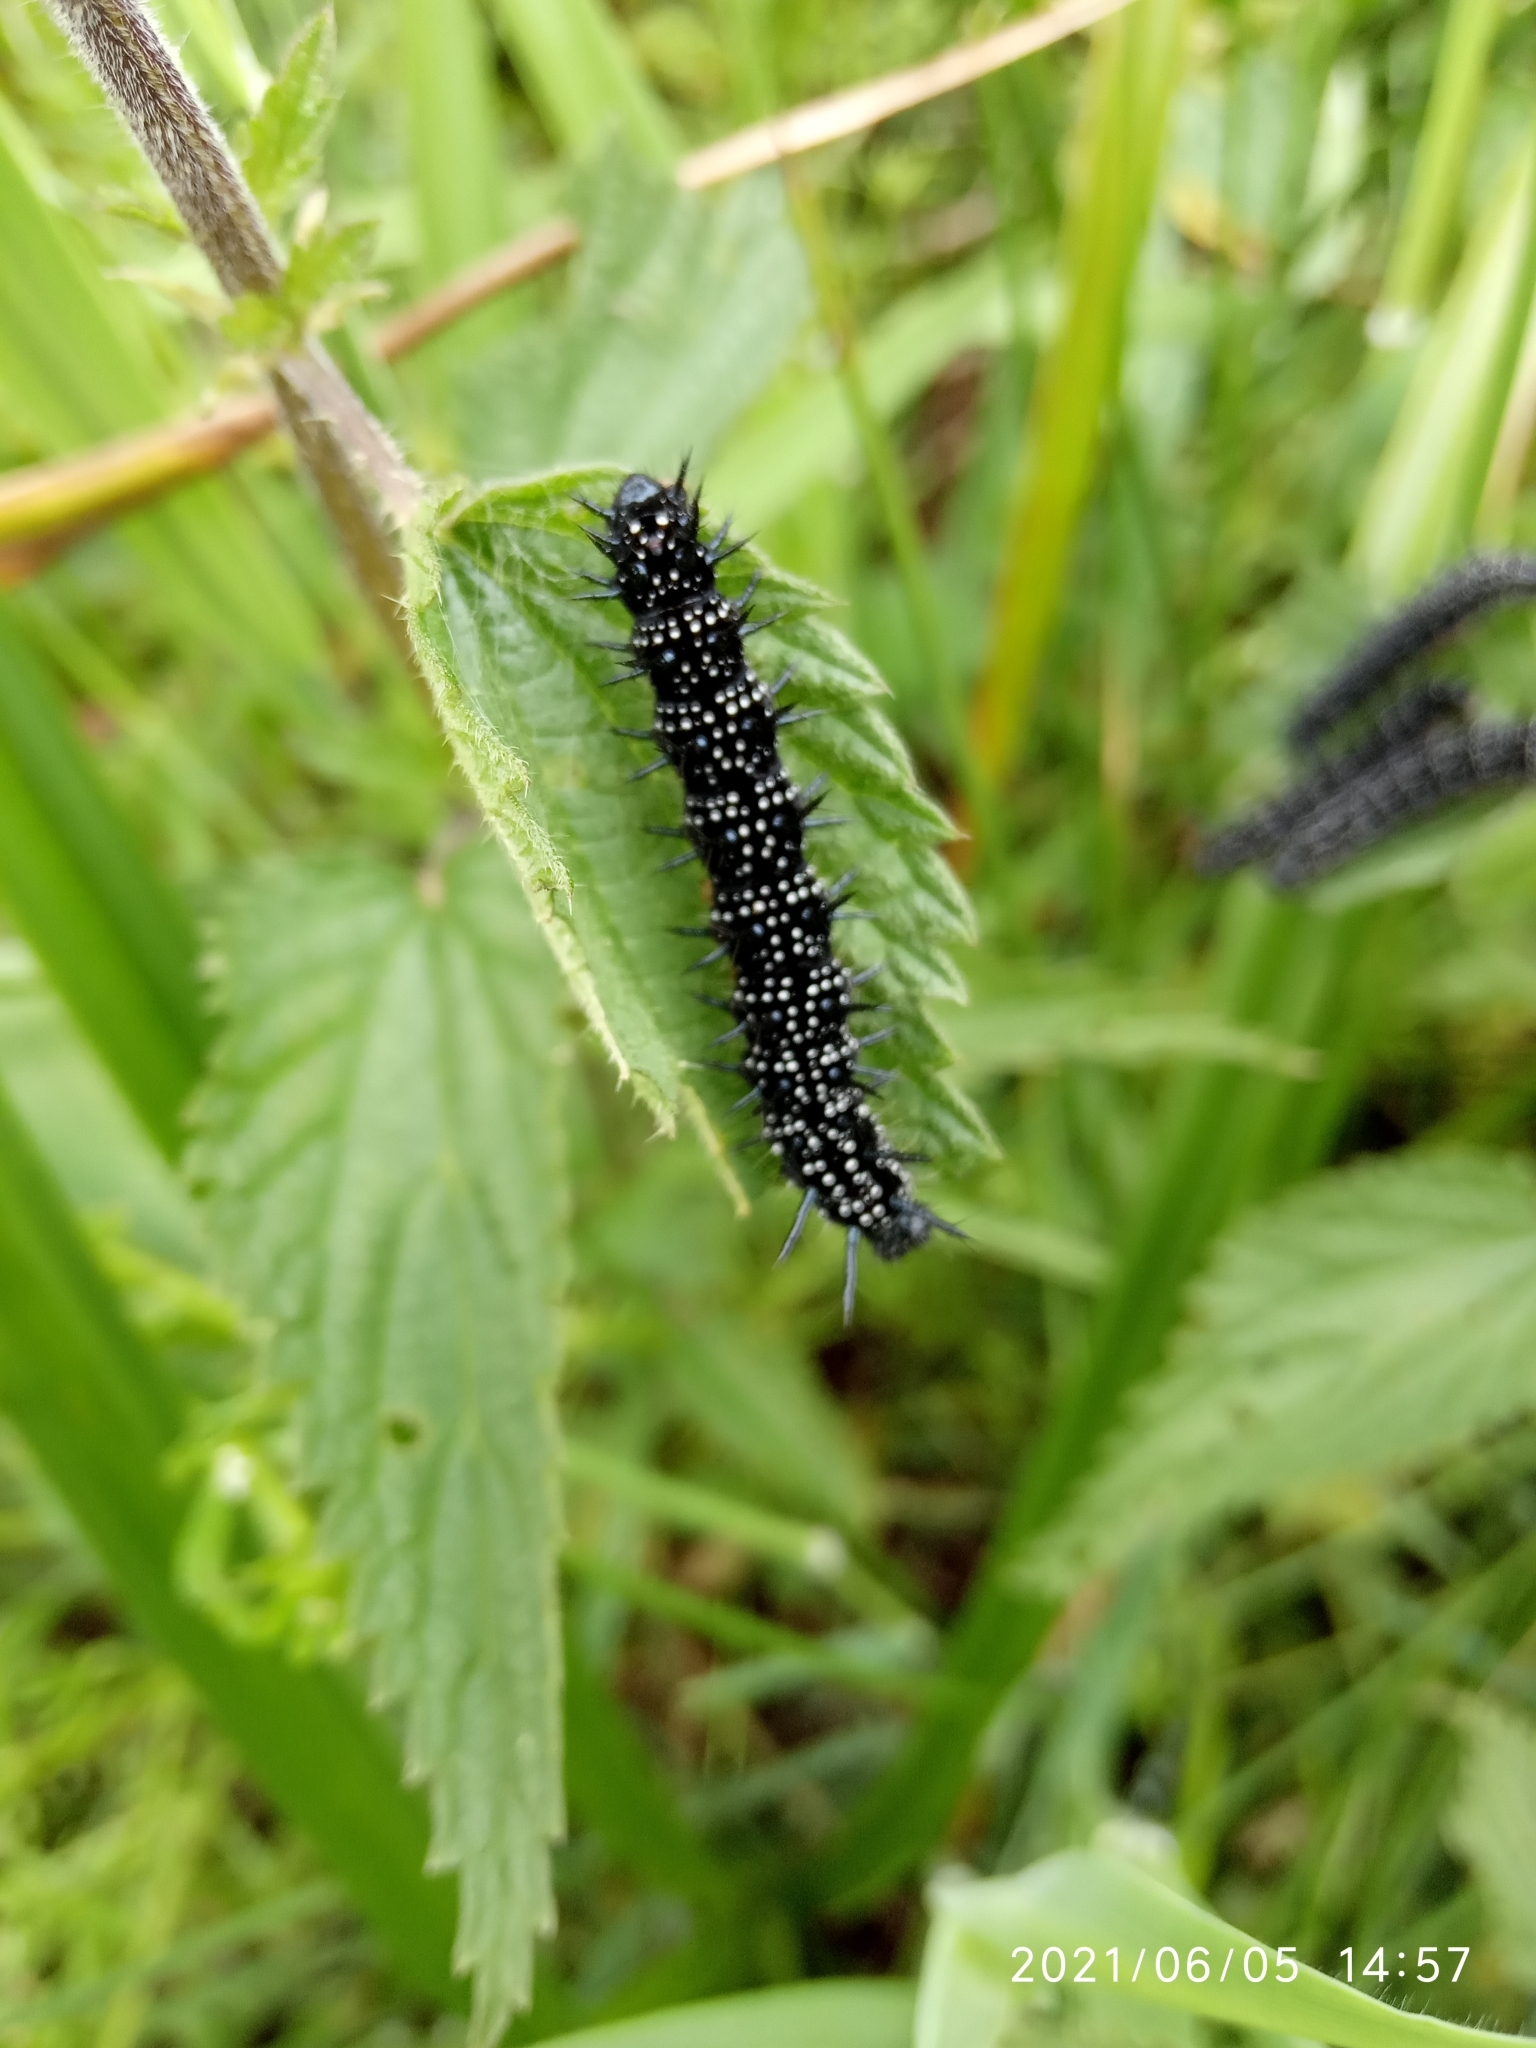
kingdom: Animalia
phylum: Arthropoda
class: Insecta
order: Lepidoptera
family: Nymphalidae
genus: Aglais
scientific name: Aglais io
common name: Peacock
